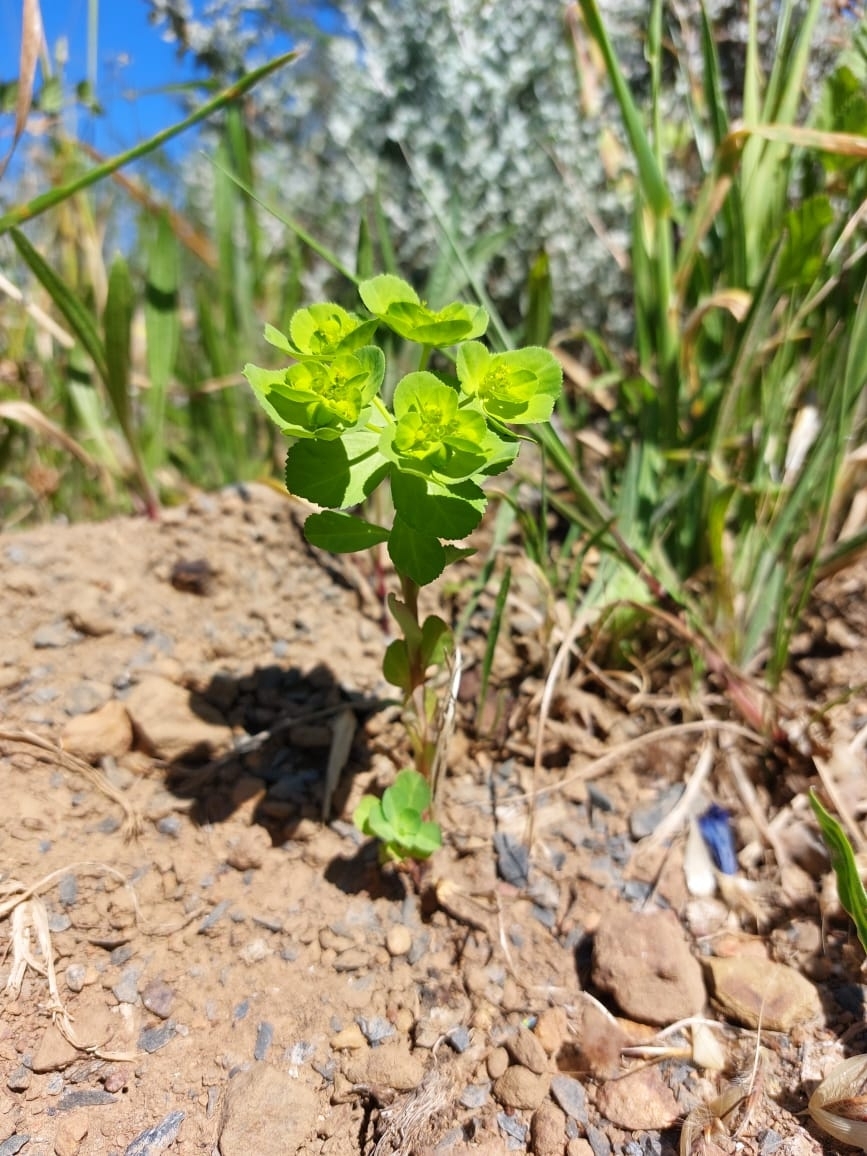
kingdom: Plantae
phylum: Tracheophyta
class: Magnoliopsida
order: Malpighiales
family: Euphorbiaceae
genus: Euphorbia
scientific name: Euphorbia helioscopia
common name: Sun spurge
